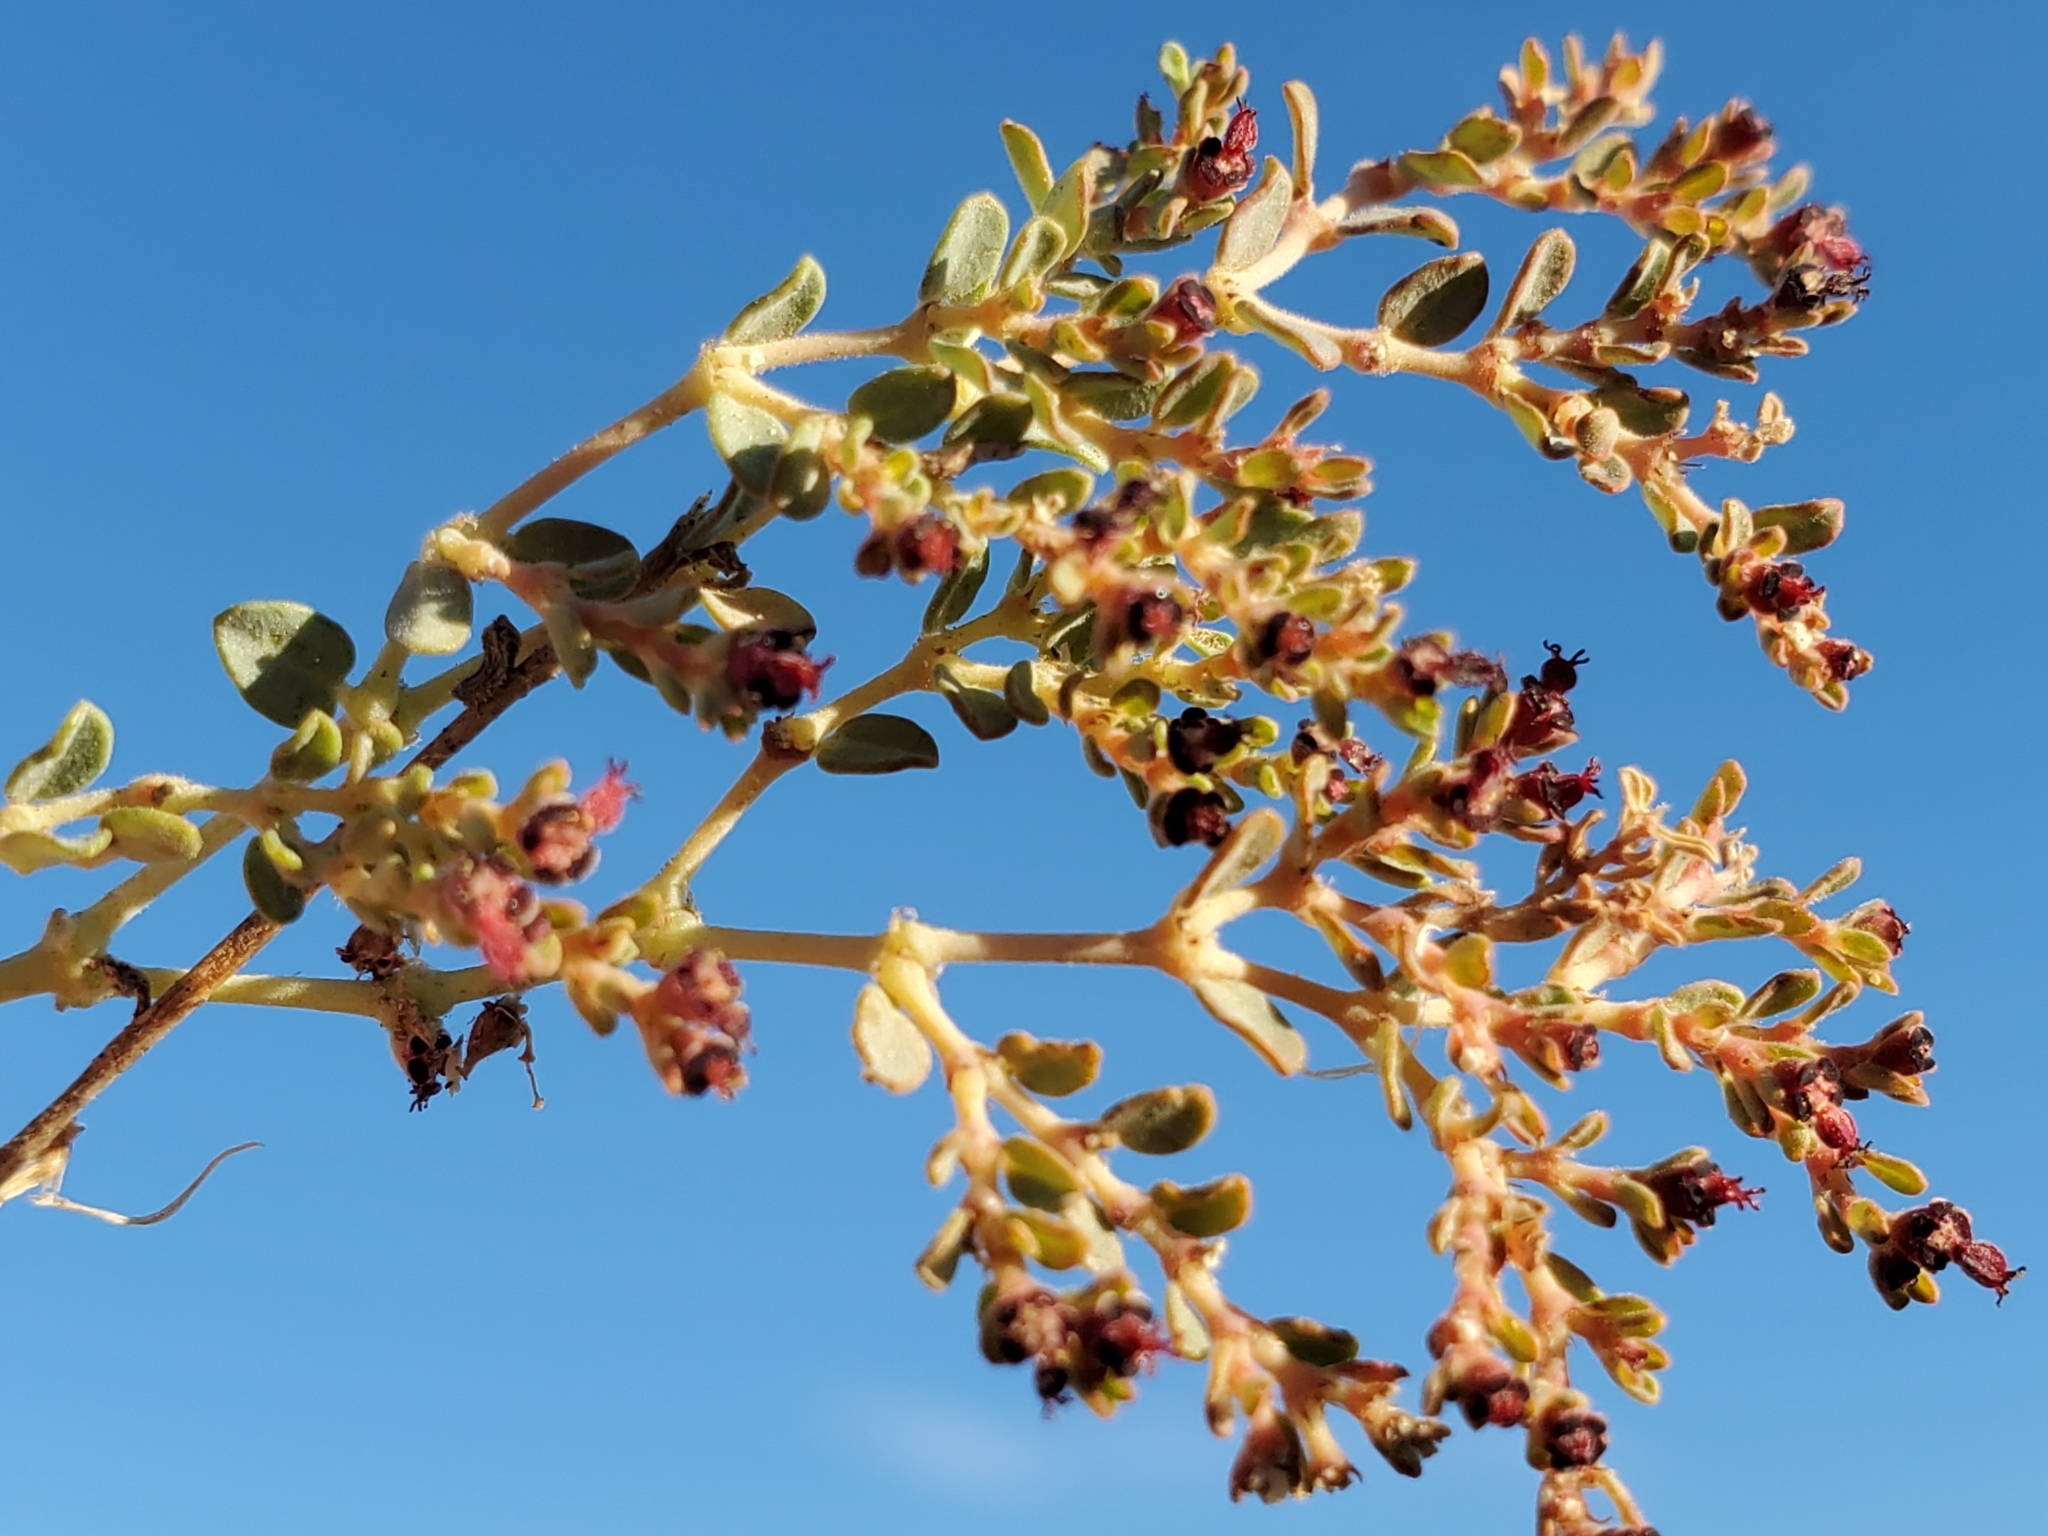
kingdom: Plantae
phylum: Tracheophyta
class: Magnoliopsida
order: Malpighiales
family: Euphorbiaceae
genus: Euphorbia
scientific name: Euphorbia polycarpa
